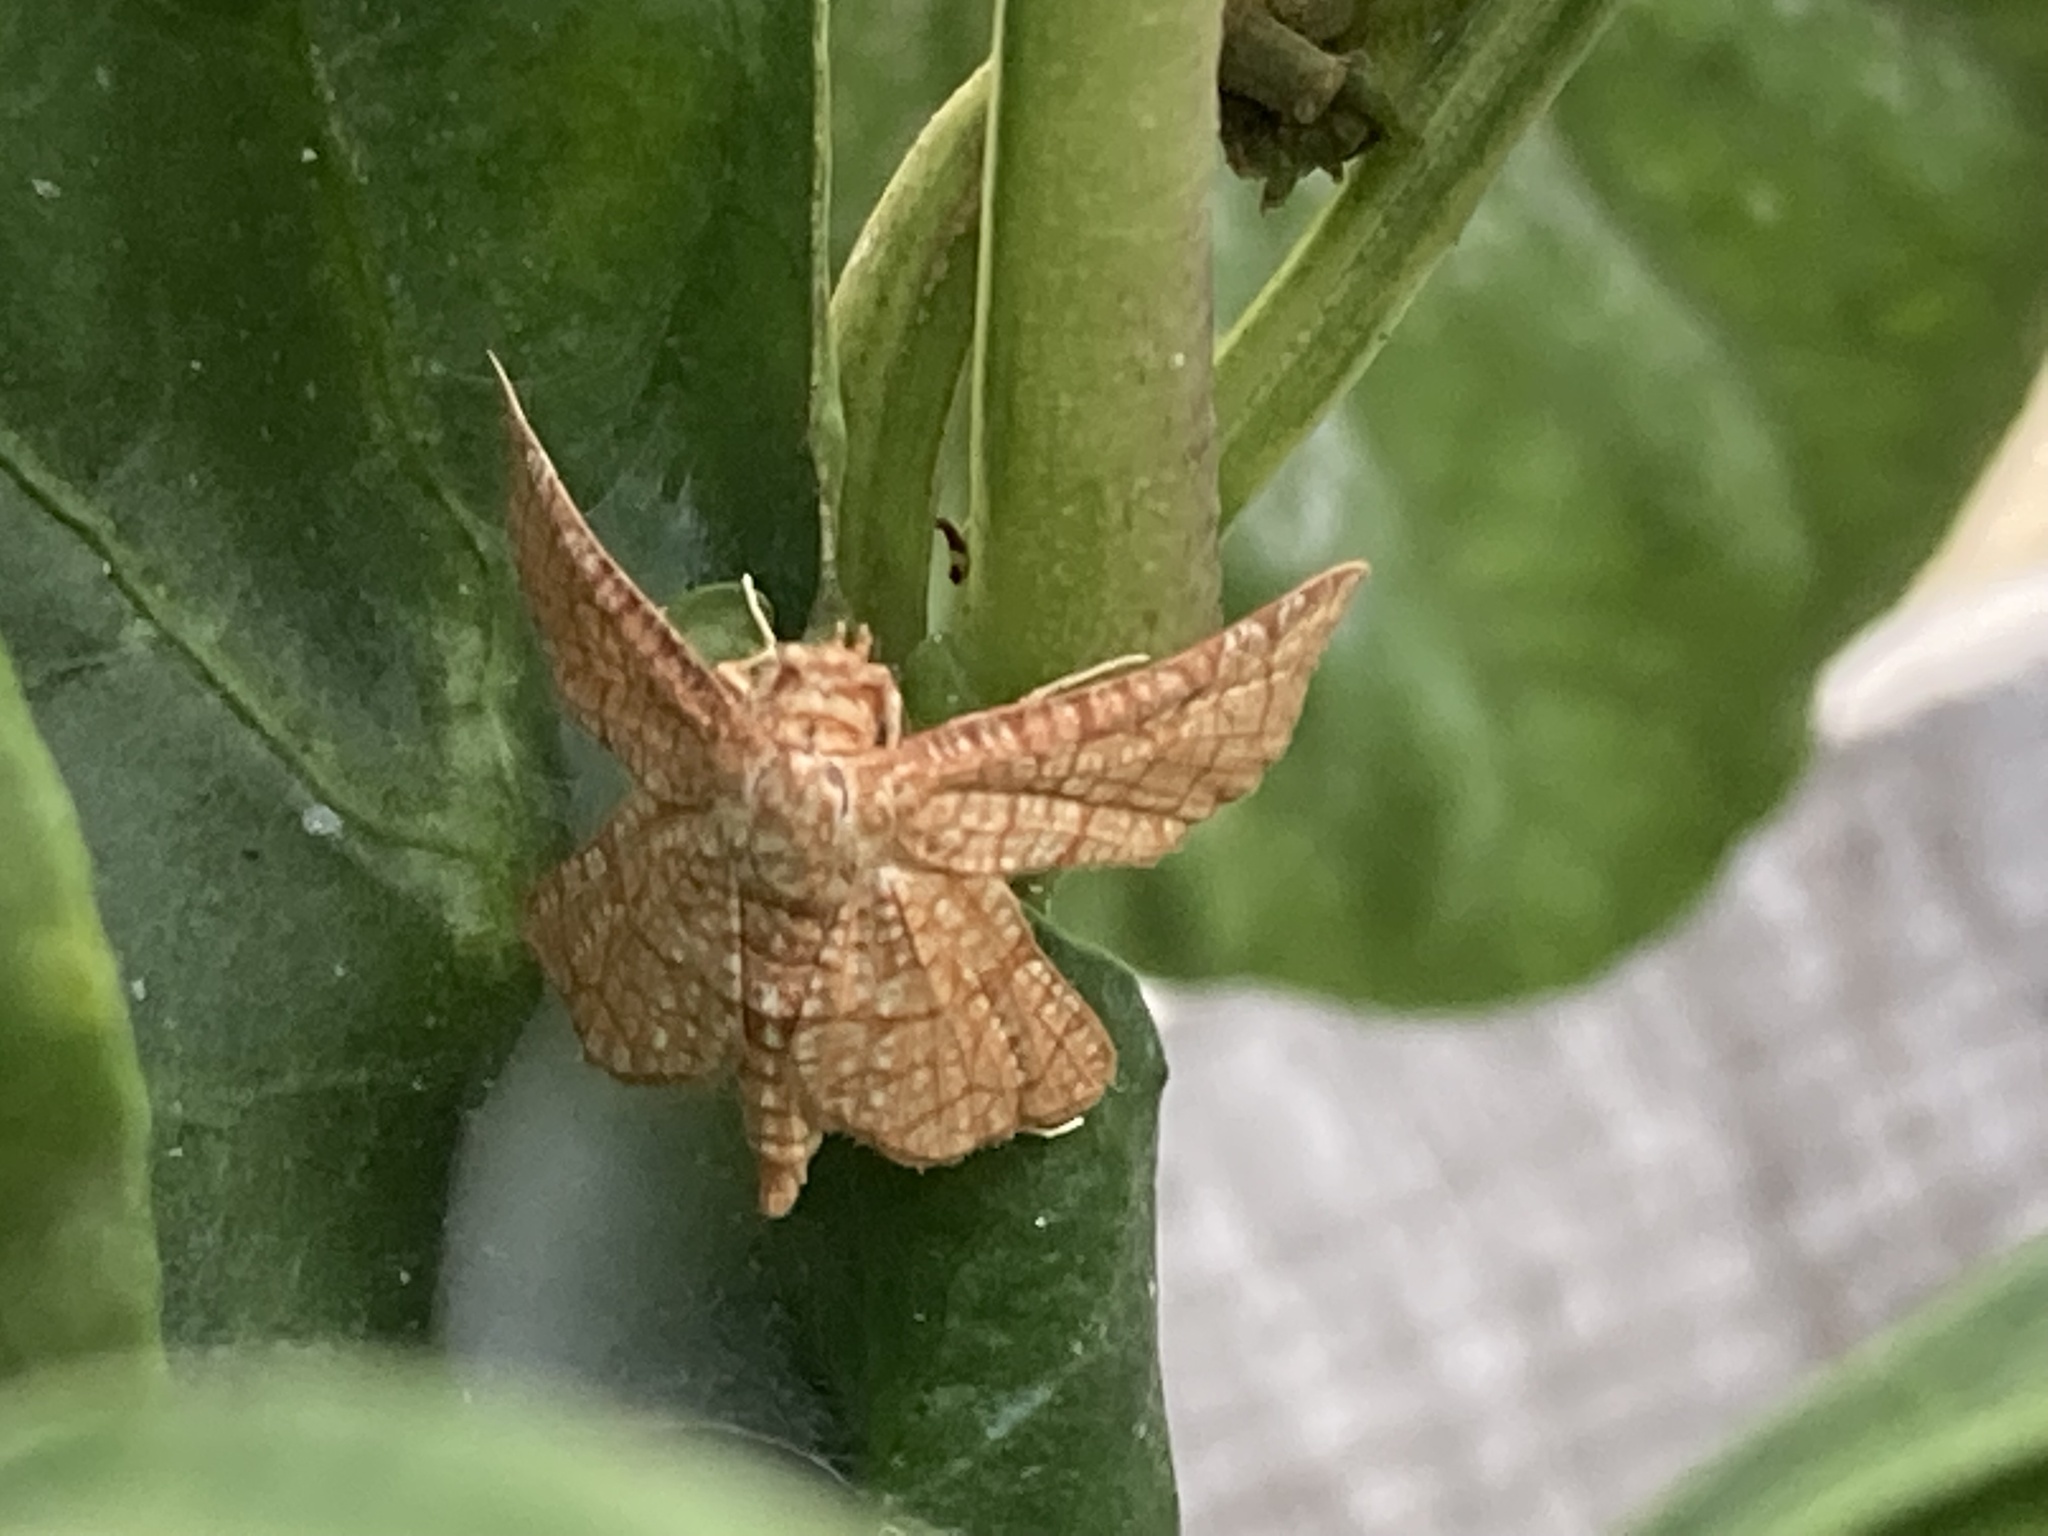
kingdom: Animalia
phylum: Arthropoda
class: Insecta
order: Lepidoptera
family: Thyrididae
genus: Hexeris
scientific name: Hexeris enhydris
